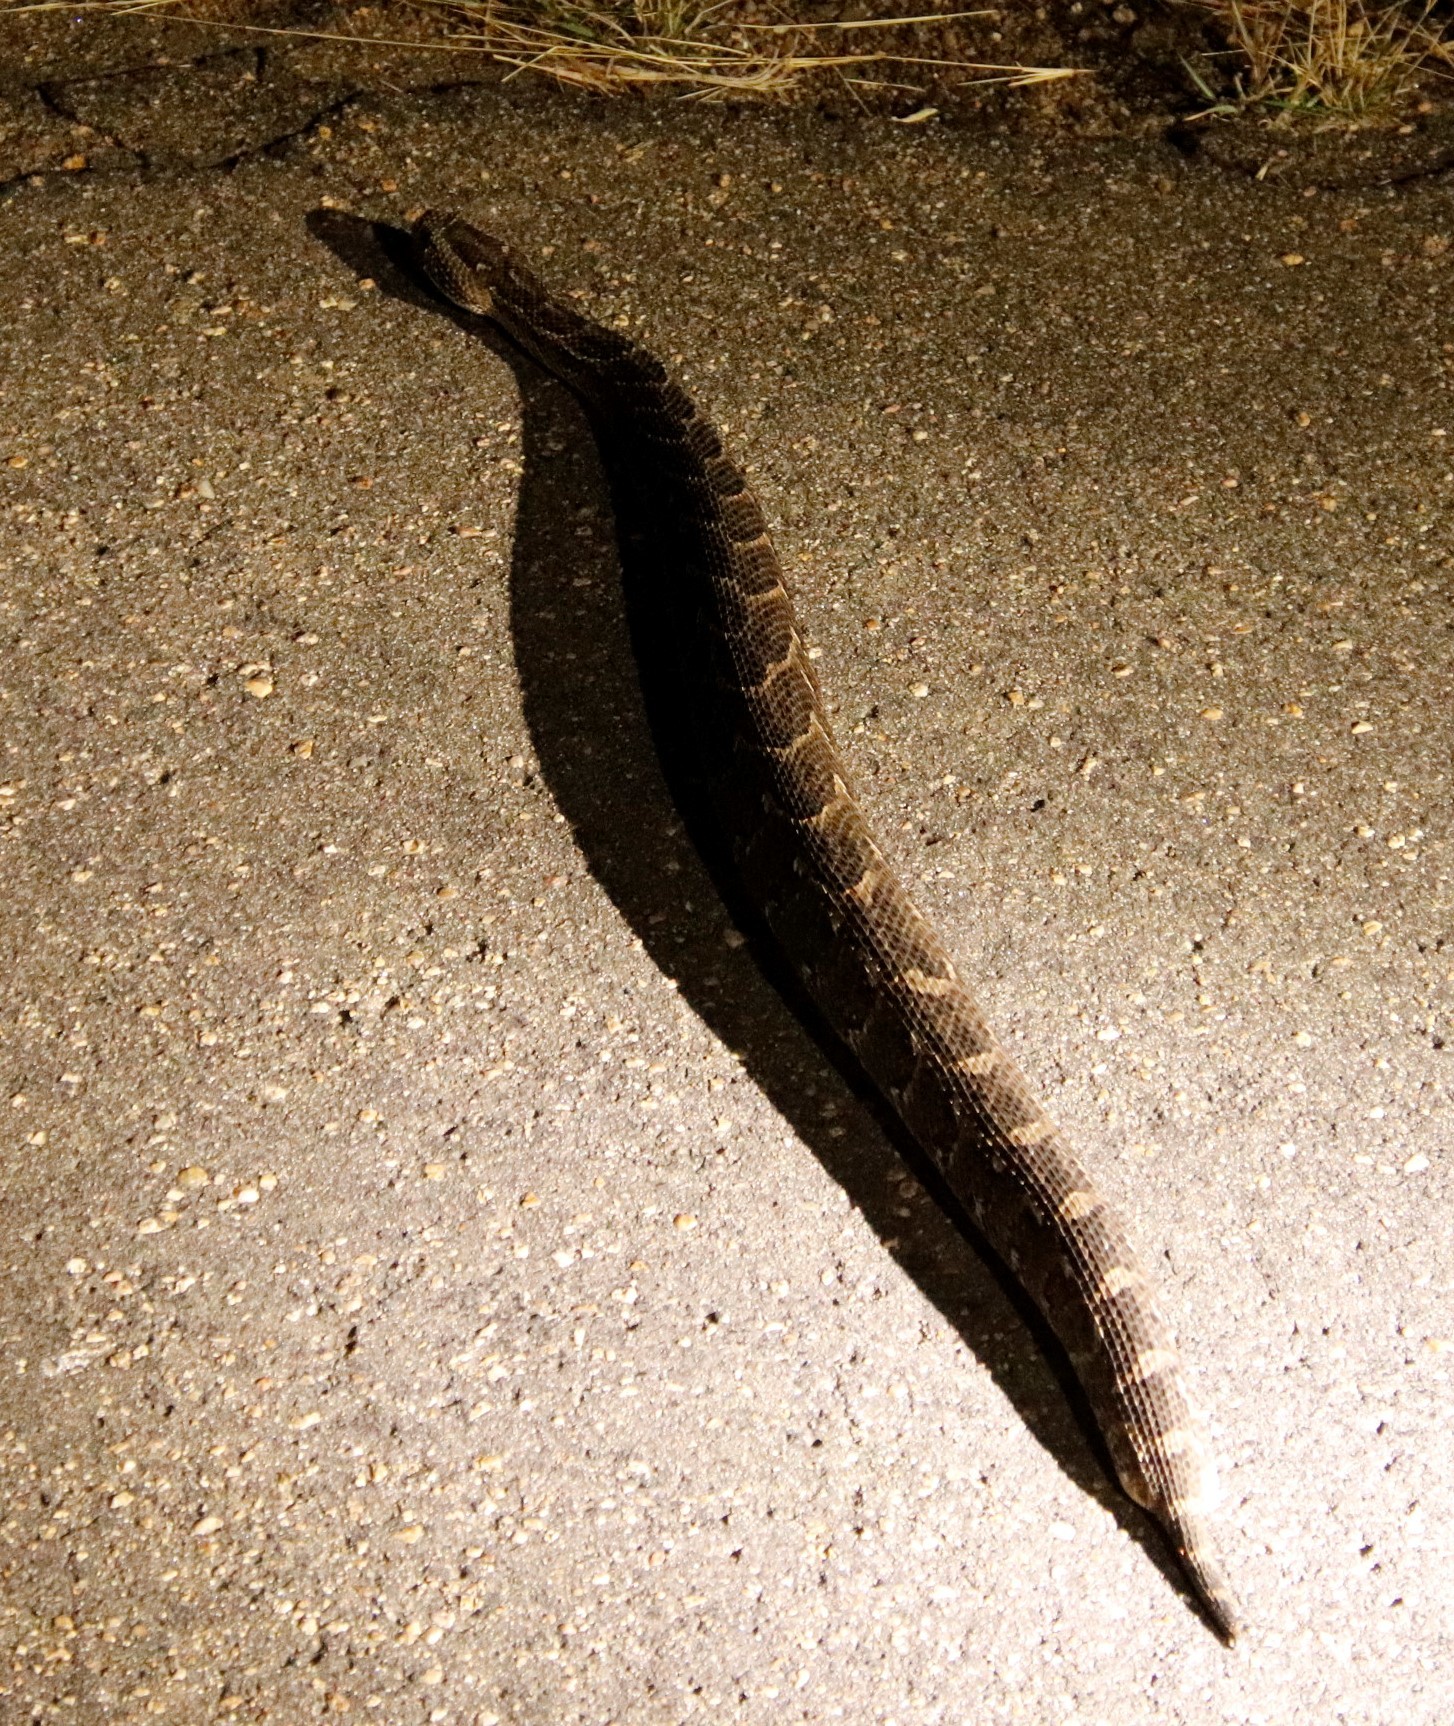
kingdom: Animalia
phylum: Chordata
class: Squamata
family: Viperidae
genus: Bitis
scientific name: Bitis arietans
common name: Puff adder
